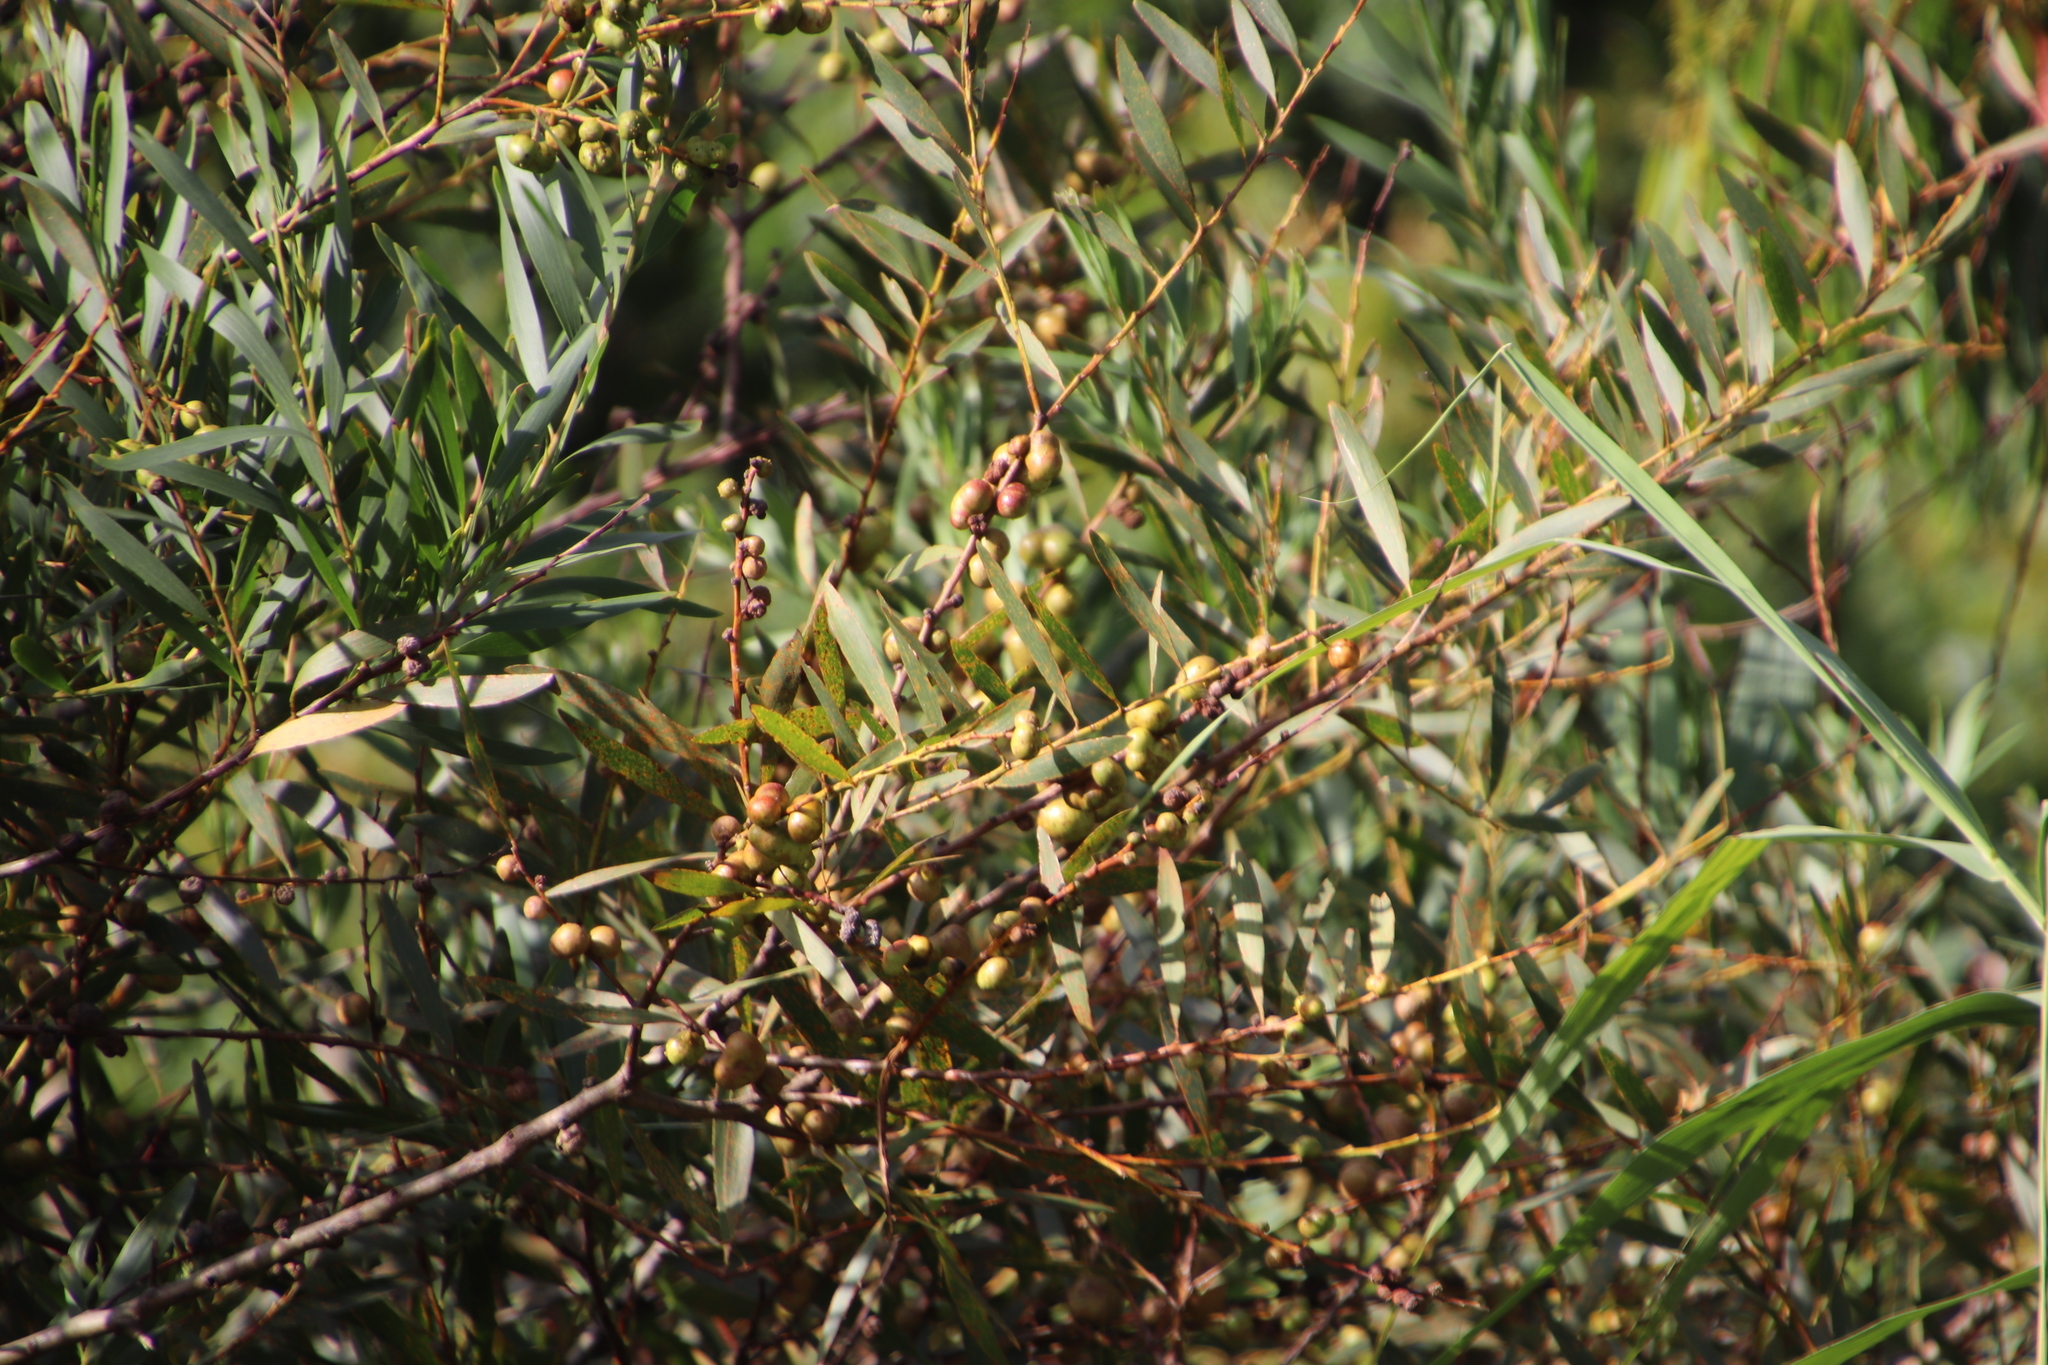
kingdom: Plantae
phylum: Tracheophyta
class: Magnoliopsida
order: Fabales
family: Fabaceae
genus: Acacia
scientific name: Acacia longifolia
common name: Sydney golden wattle
